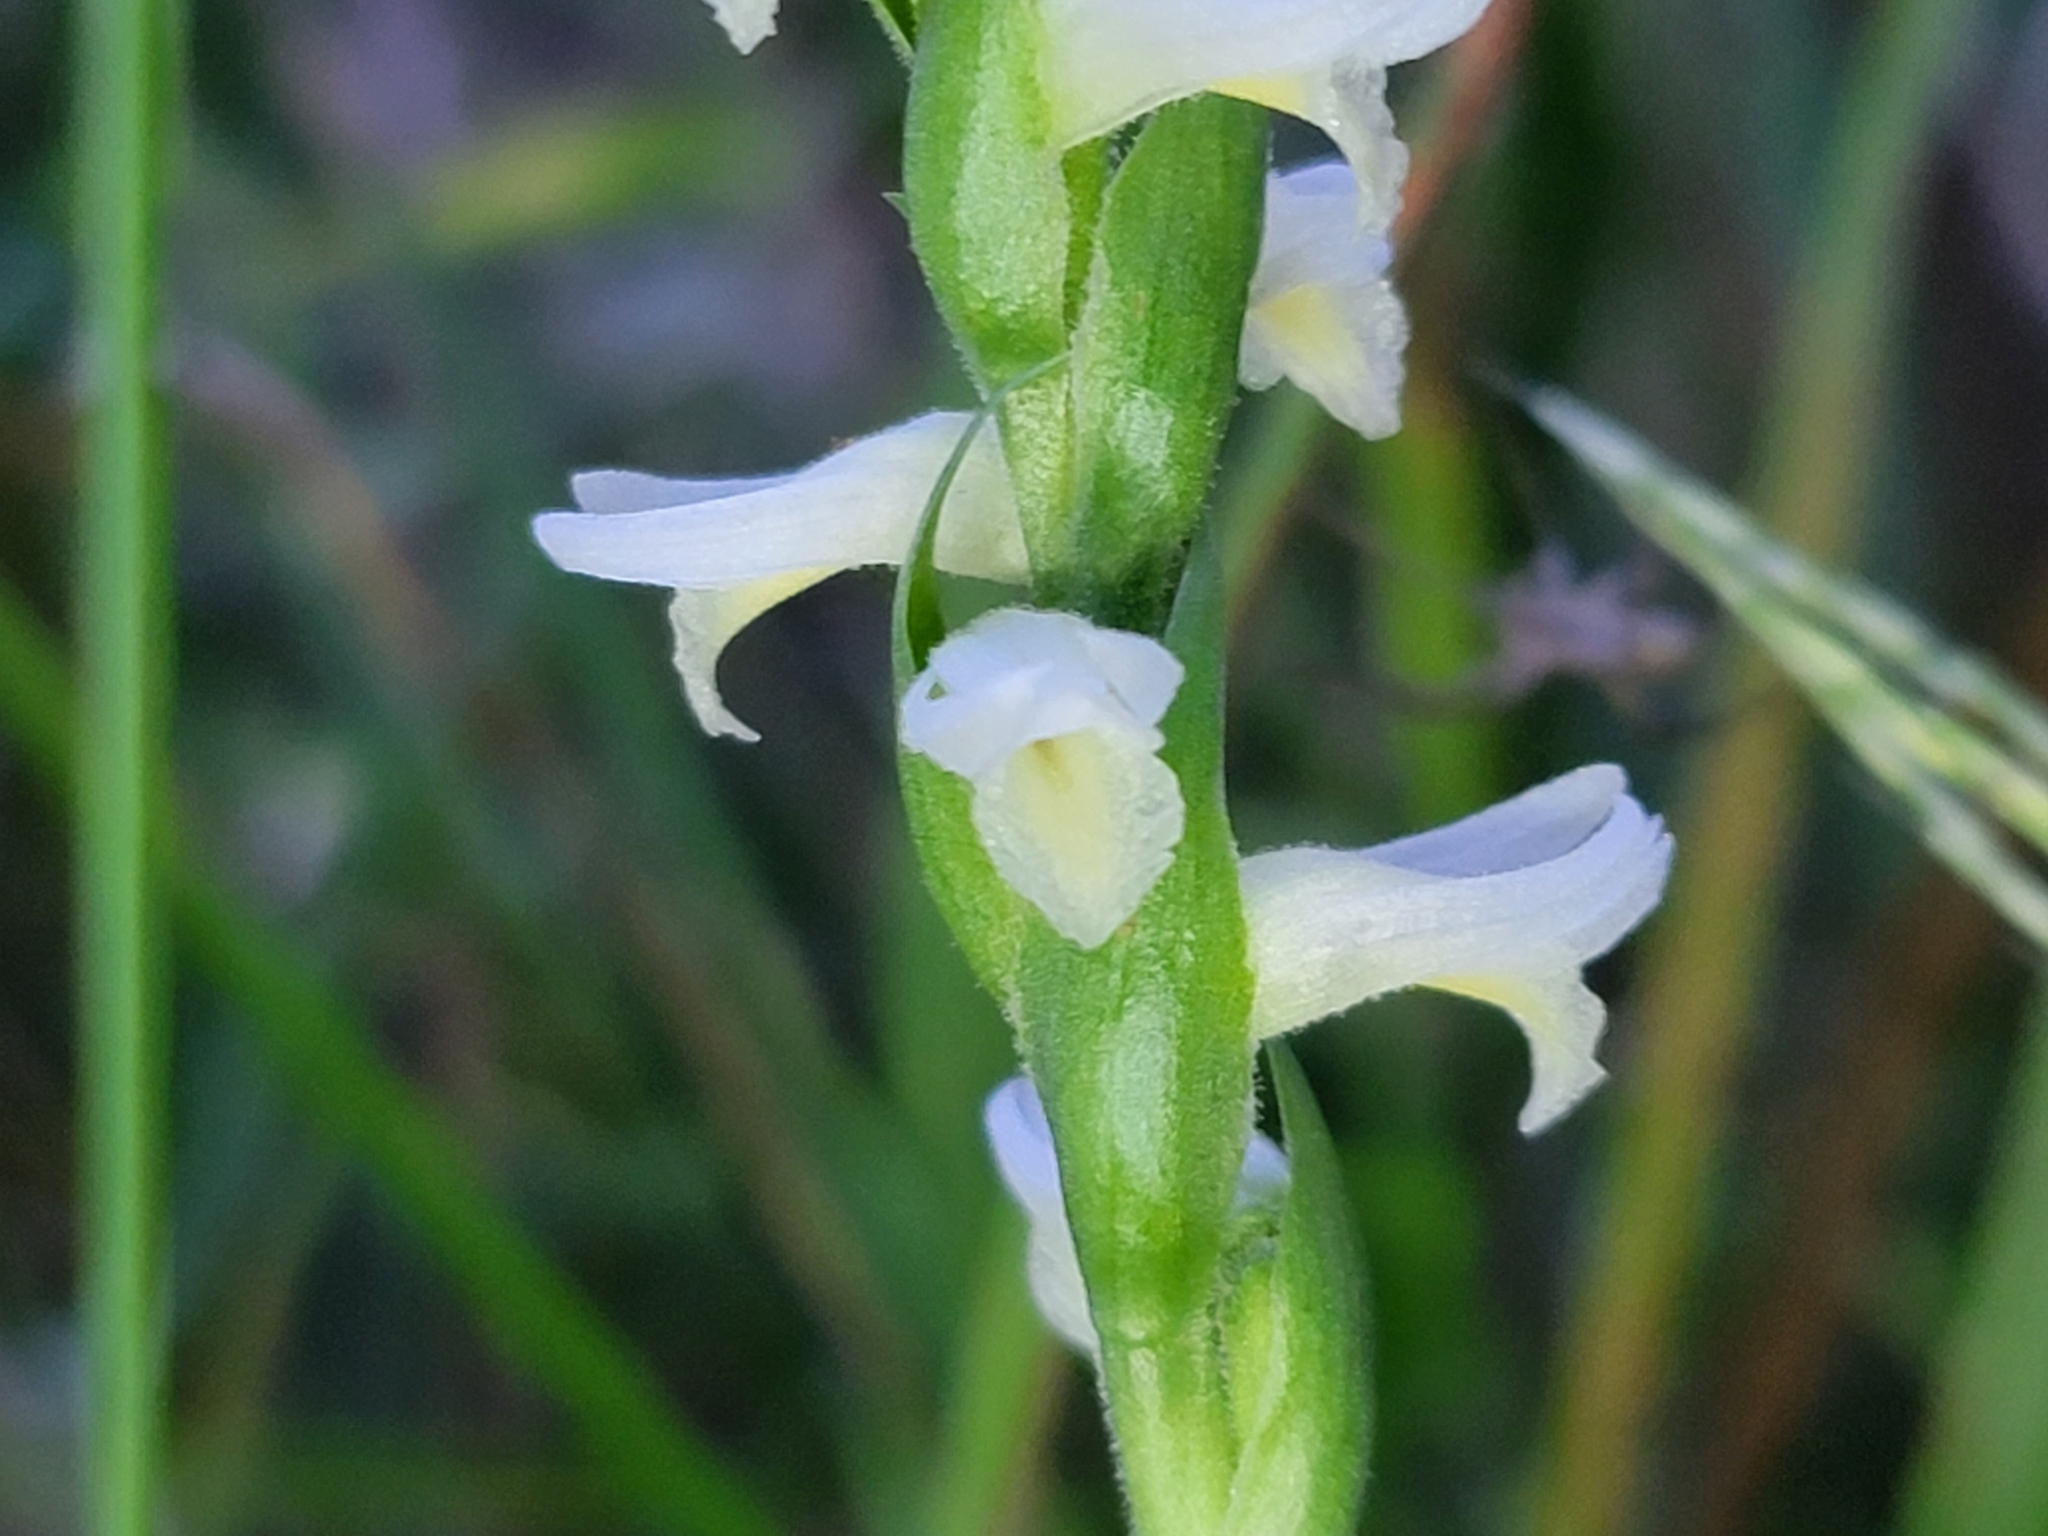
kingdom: Plantae
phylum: Tracheophyta
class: Liliopsida
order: Asparagales
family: Orchidaceae
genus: Spiranthes
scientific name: Spiranthes magnicamporum
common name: Great plains ladies'-tresses
